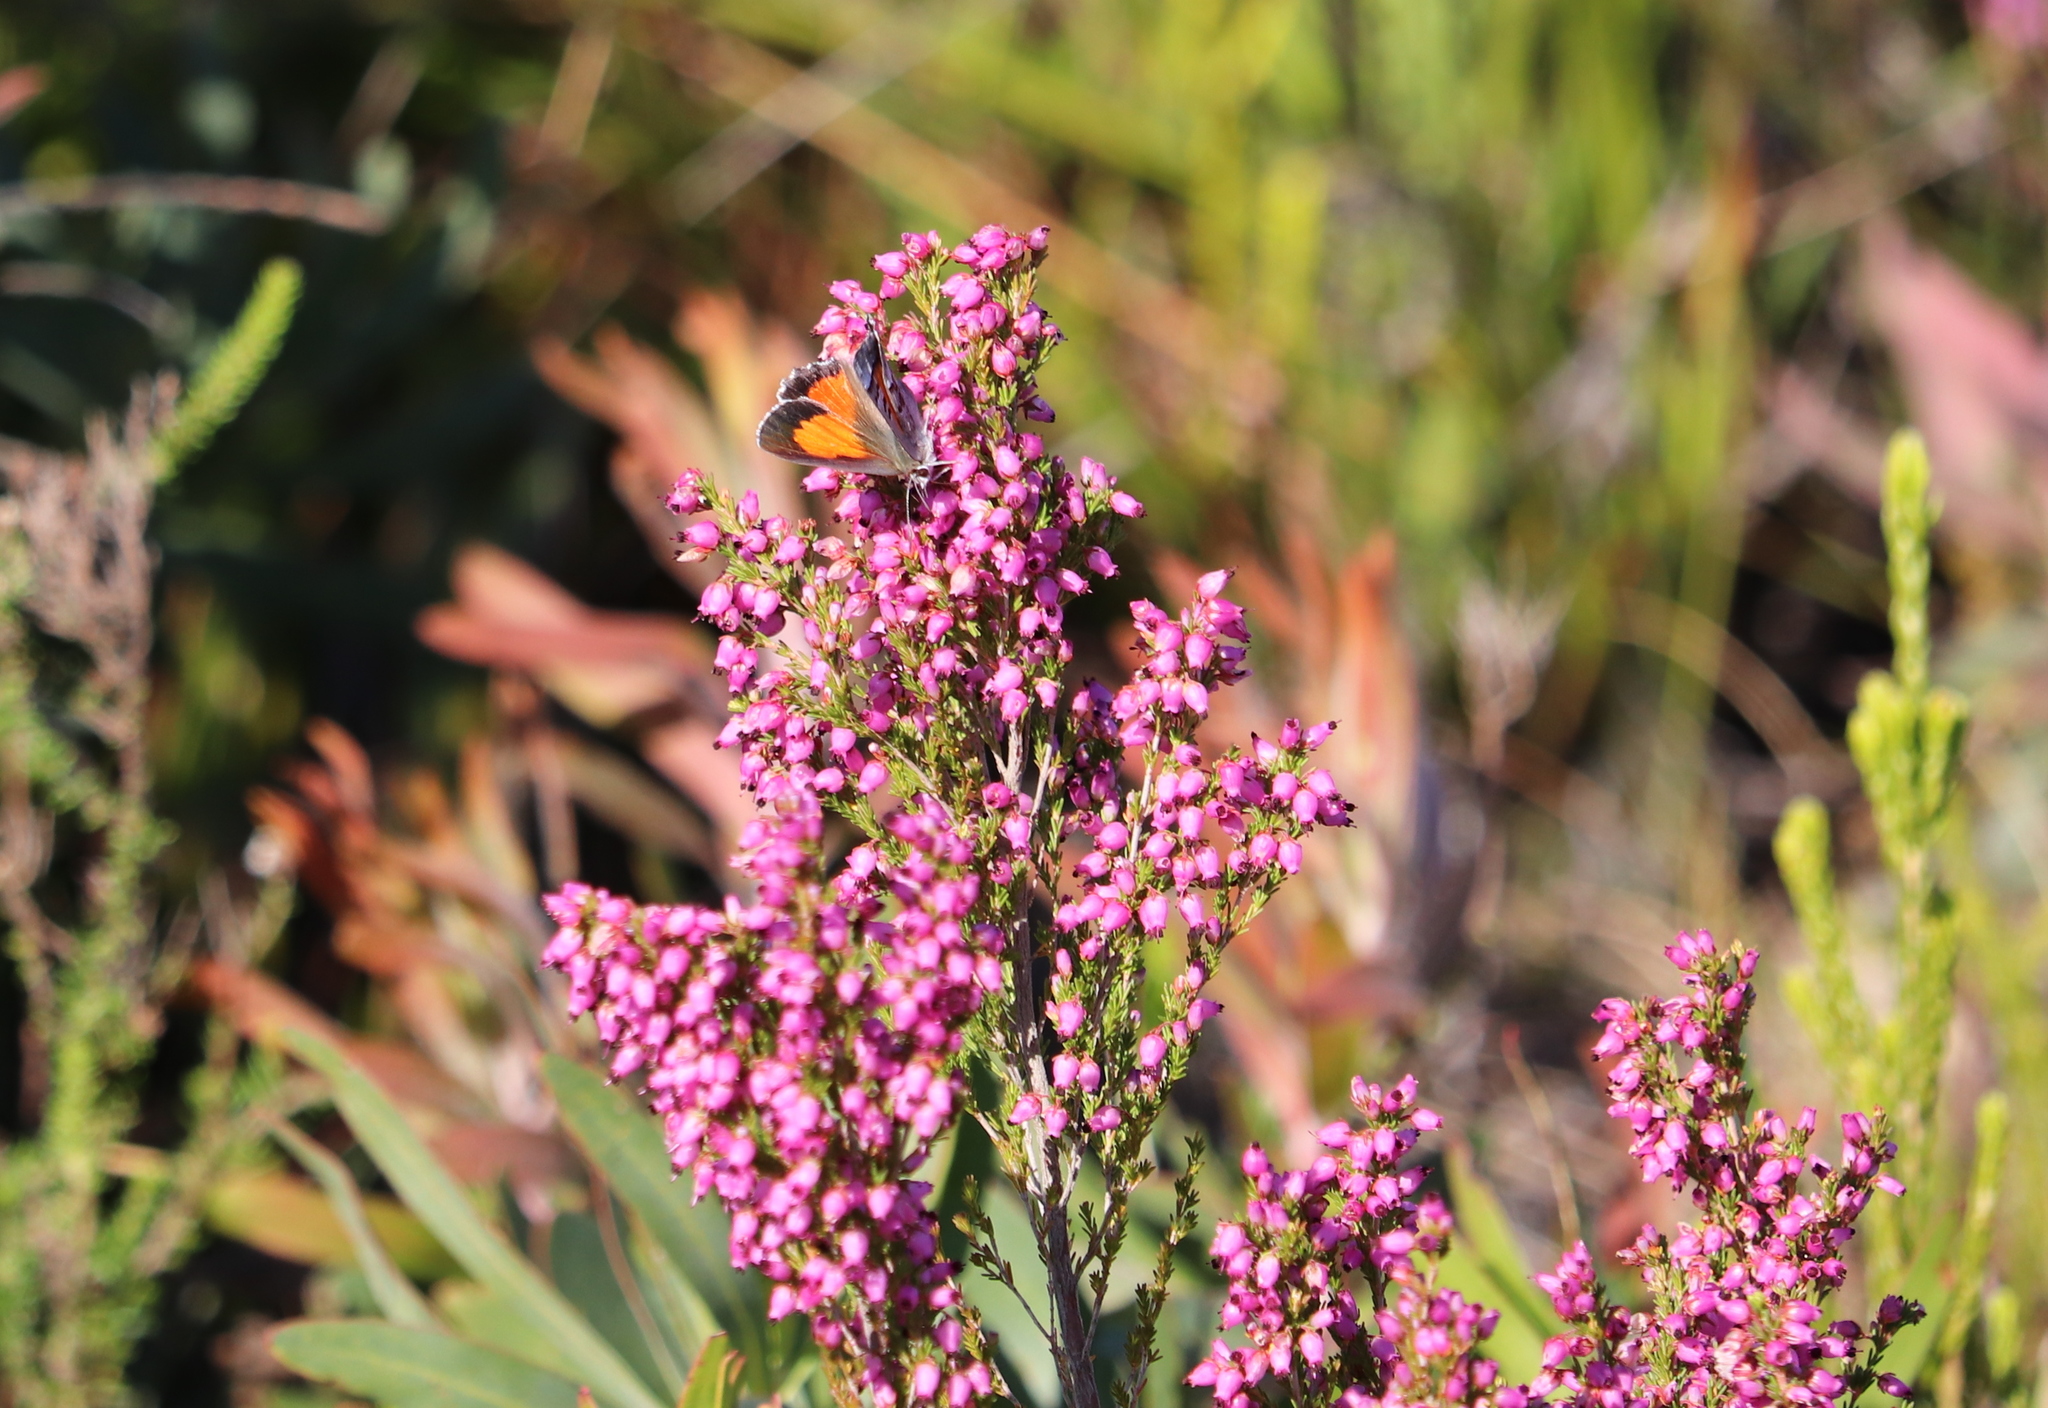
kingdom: Plantae
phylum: Tracheophyta
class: Magnoliopsida
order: Ericales
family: Ericaceae
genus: Erica
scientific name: Erica nutans
